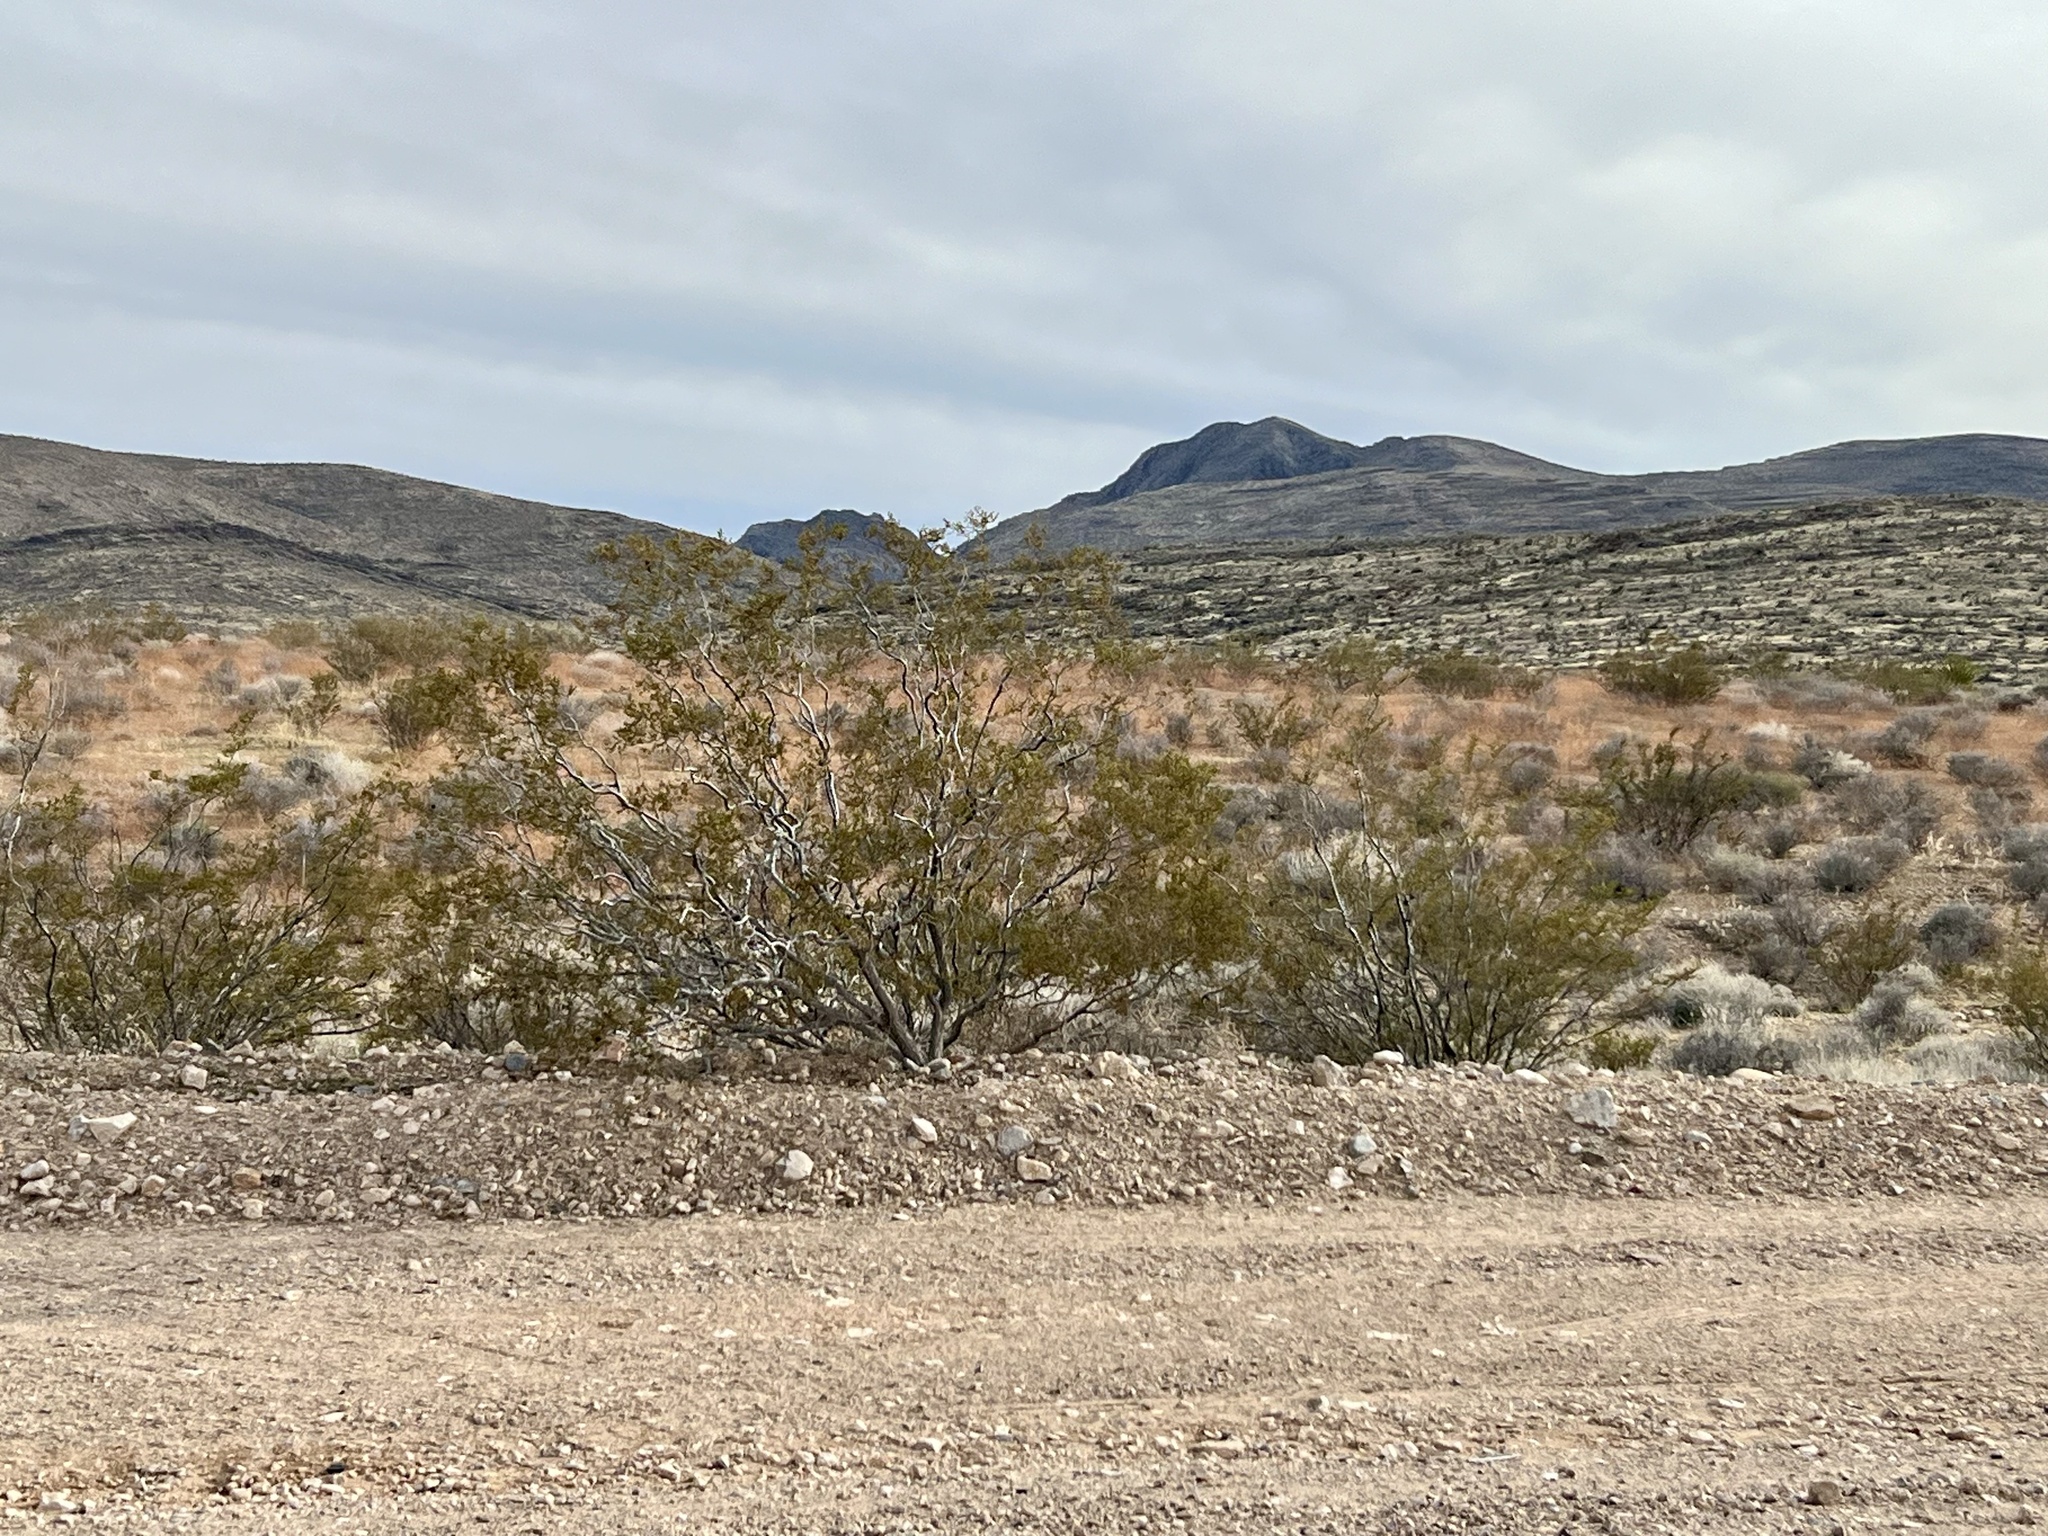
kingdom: Plantae
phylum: Tracheophyta
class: Magnoliopsida
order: Zygophyllales
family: Zygophyllaceae
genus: Larrea
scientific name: Larrea tridentata
